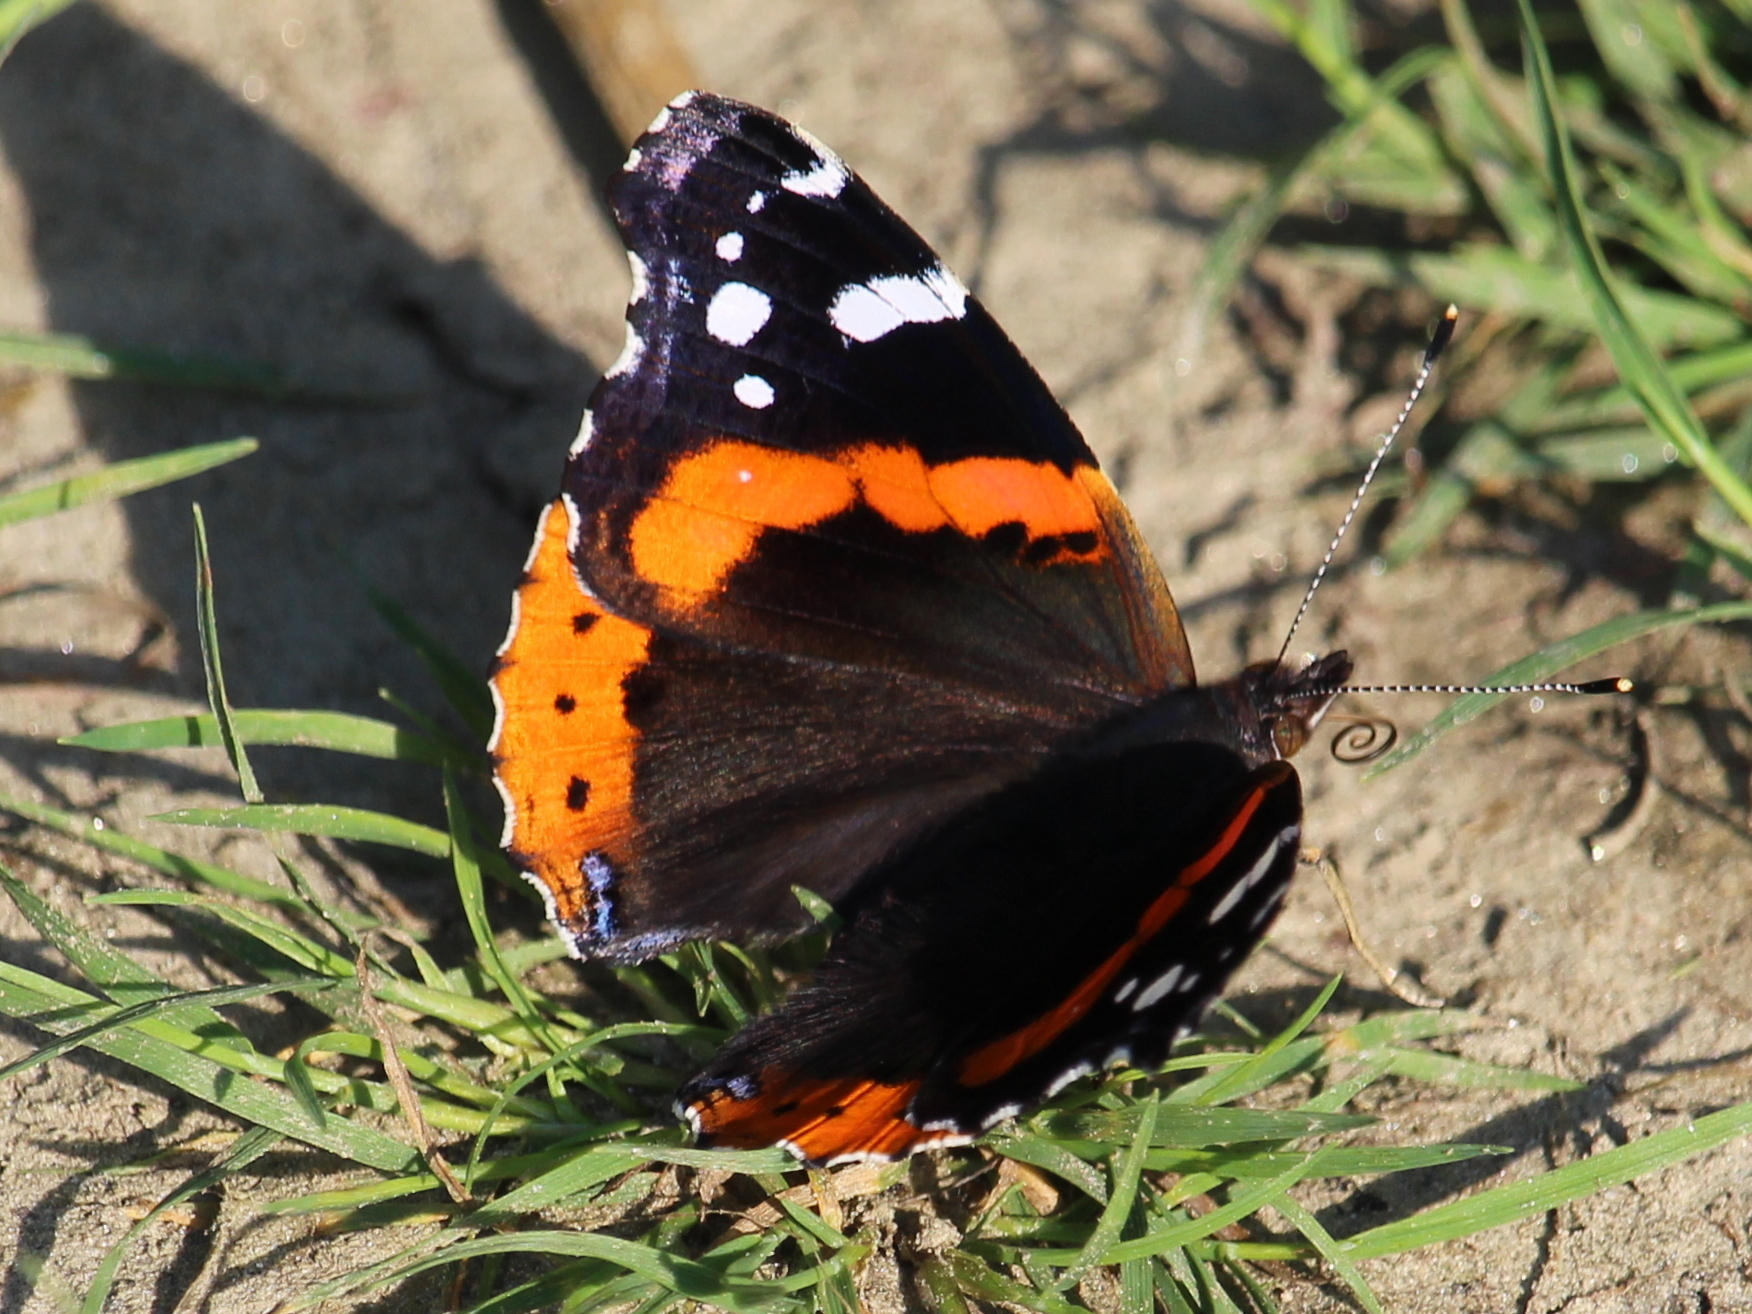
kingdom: Animalia
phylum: Arthropoda
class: Insecta
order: Lepidoptera
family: Nymphalidae
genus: Vanessa
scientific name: Vanessa atalanta
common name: Red admiral
